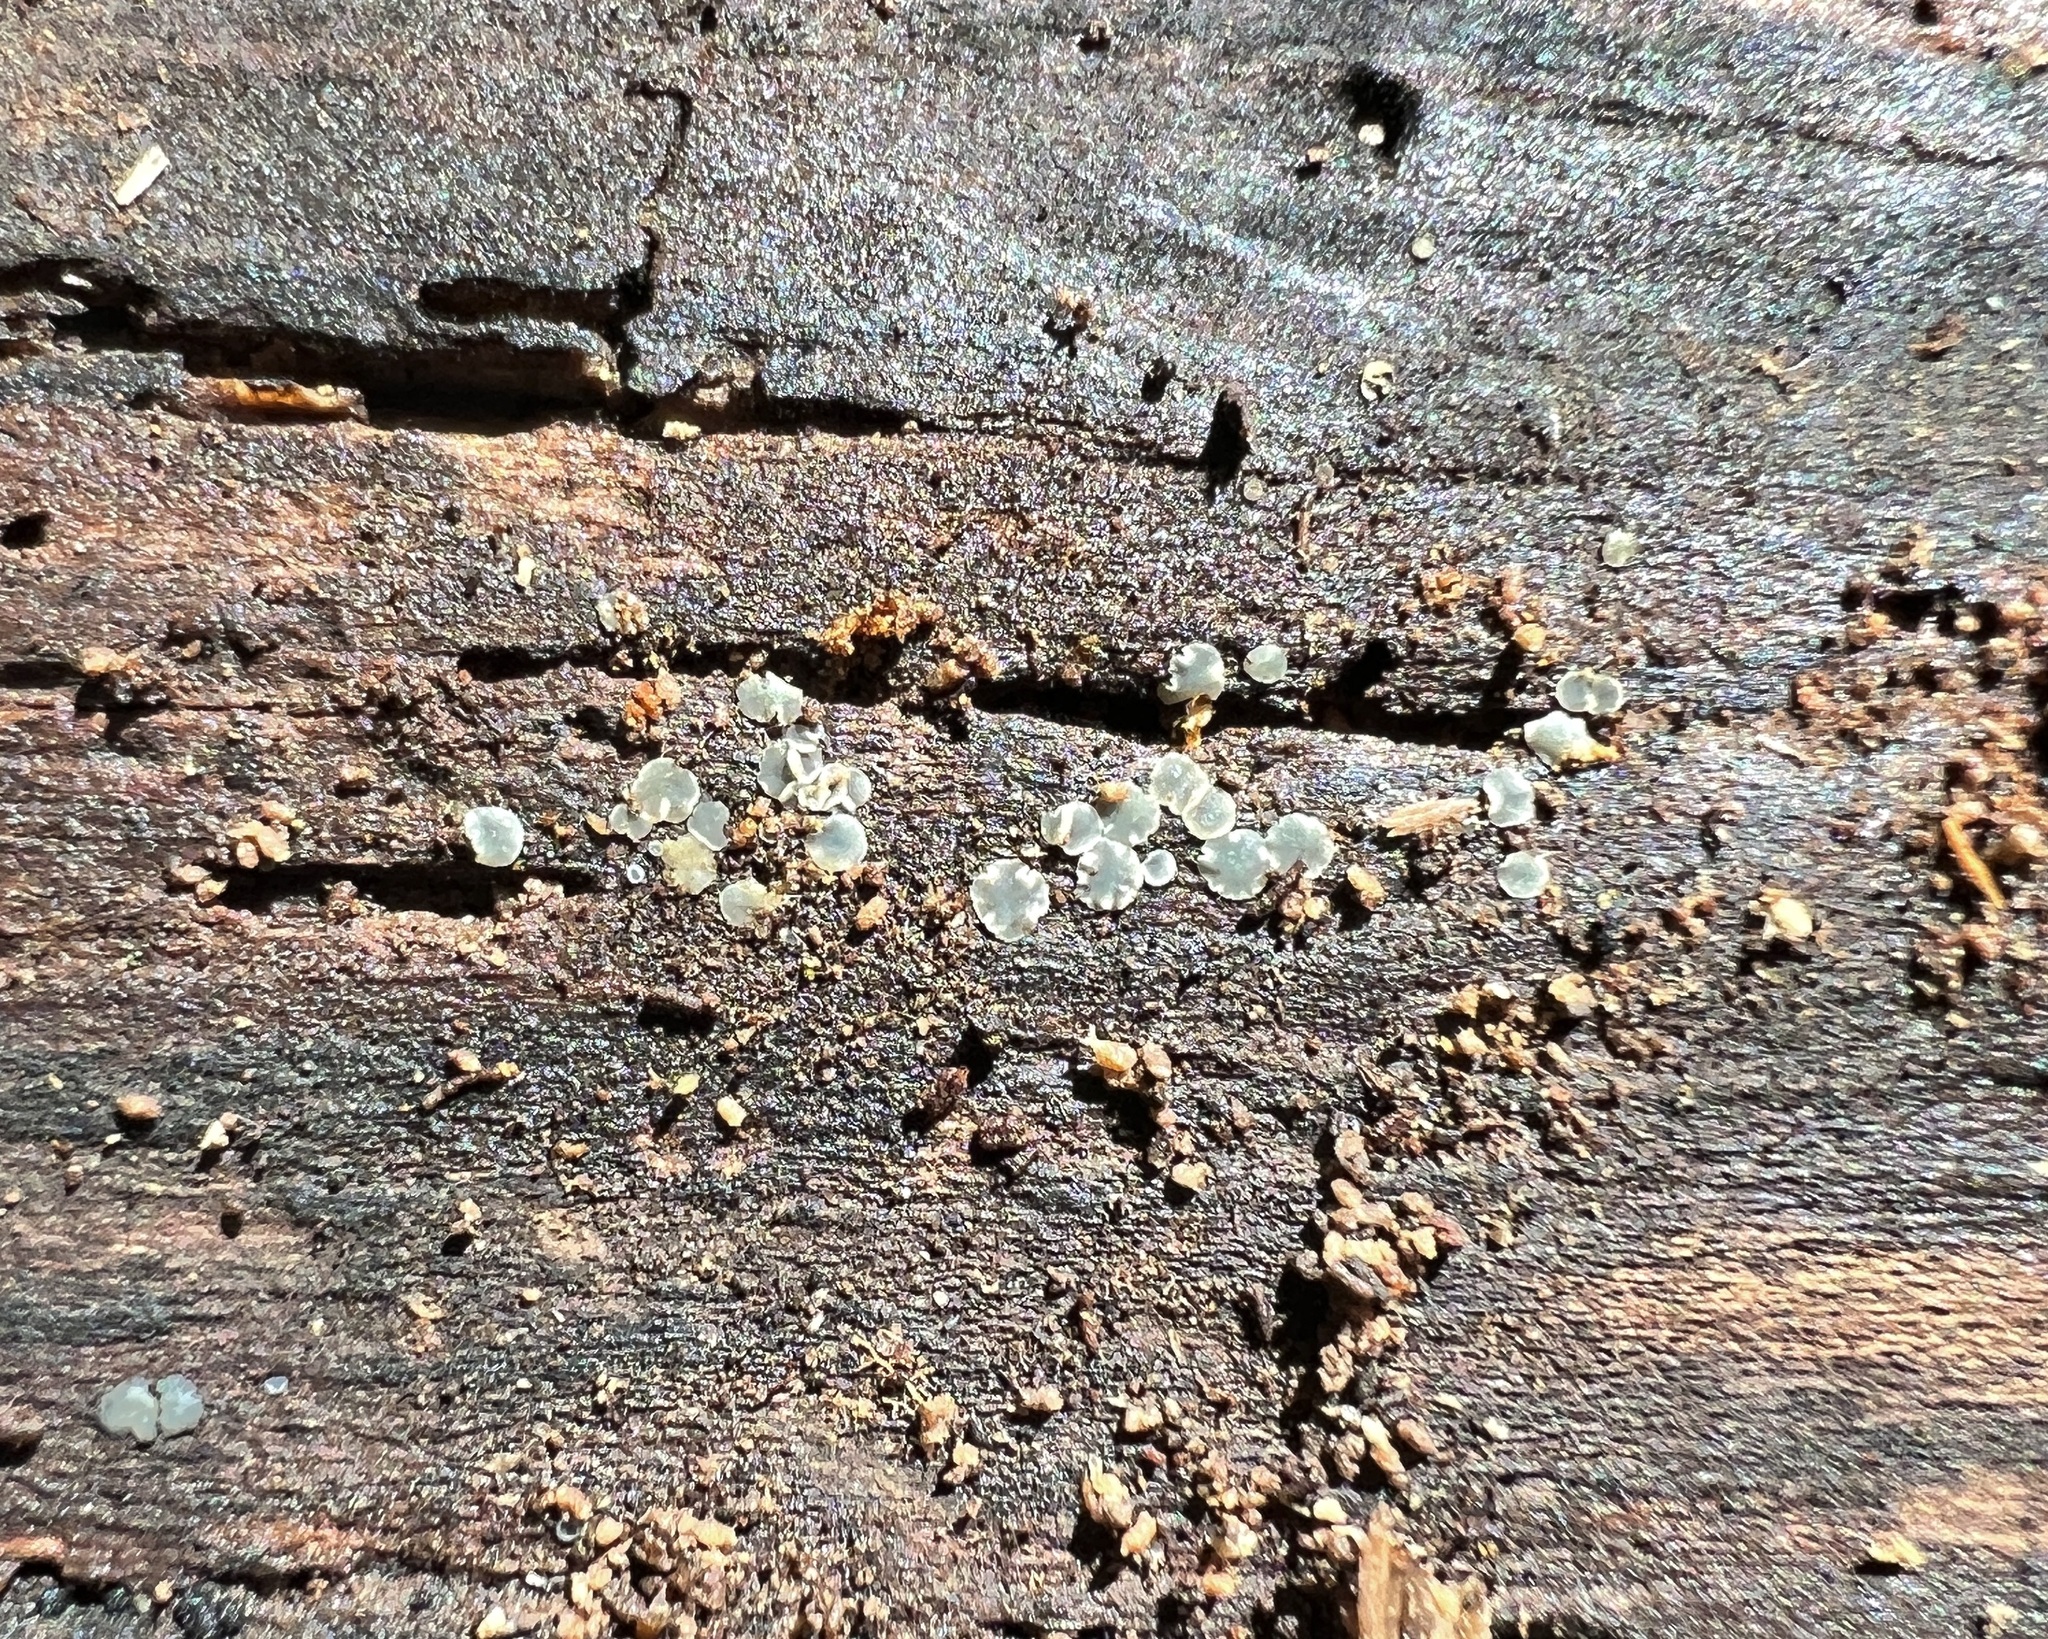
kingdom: Fungi
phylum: Ascomycota
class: Leotiomycetes
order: Helotiales
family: Mollisiaceae
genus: Mollisia
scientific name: Mollisia cinerea
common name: Common grey disco
